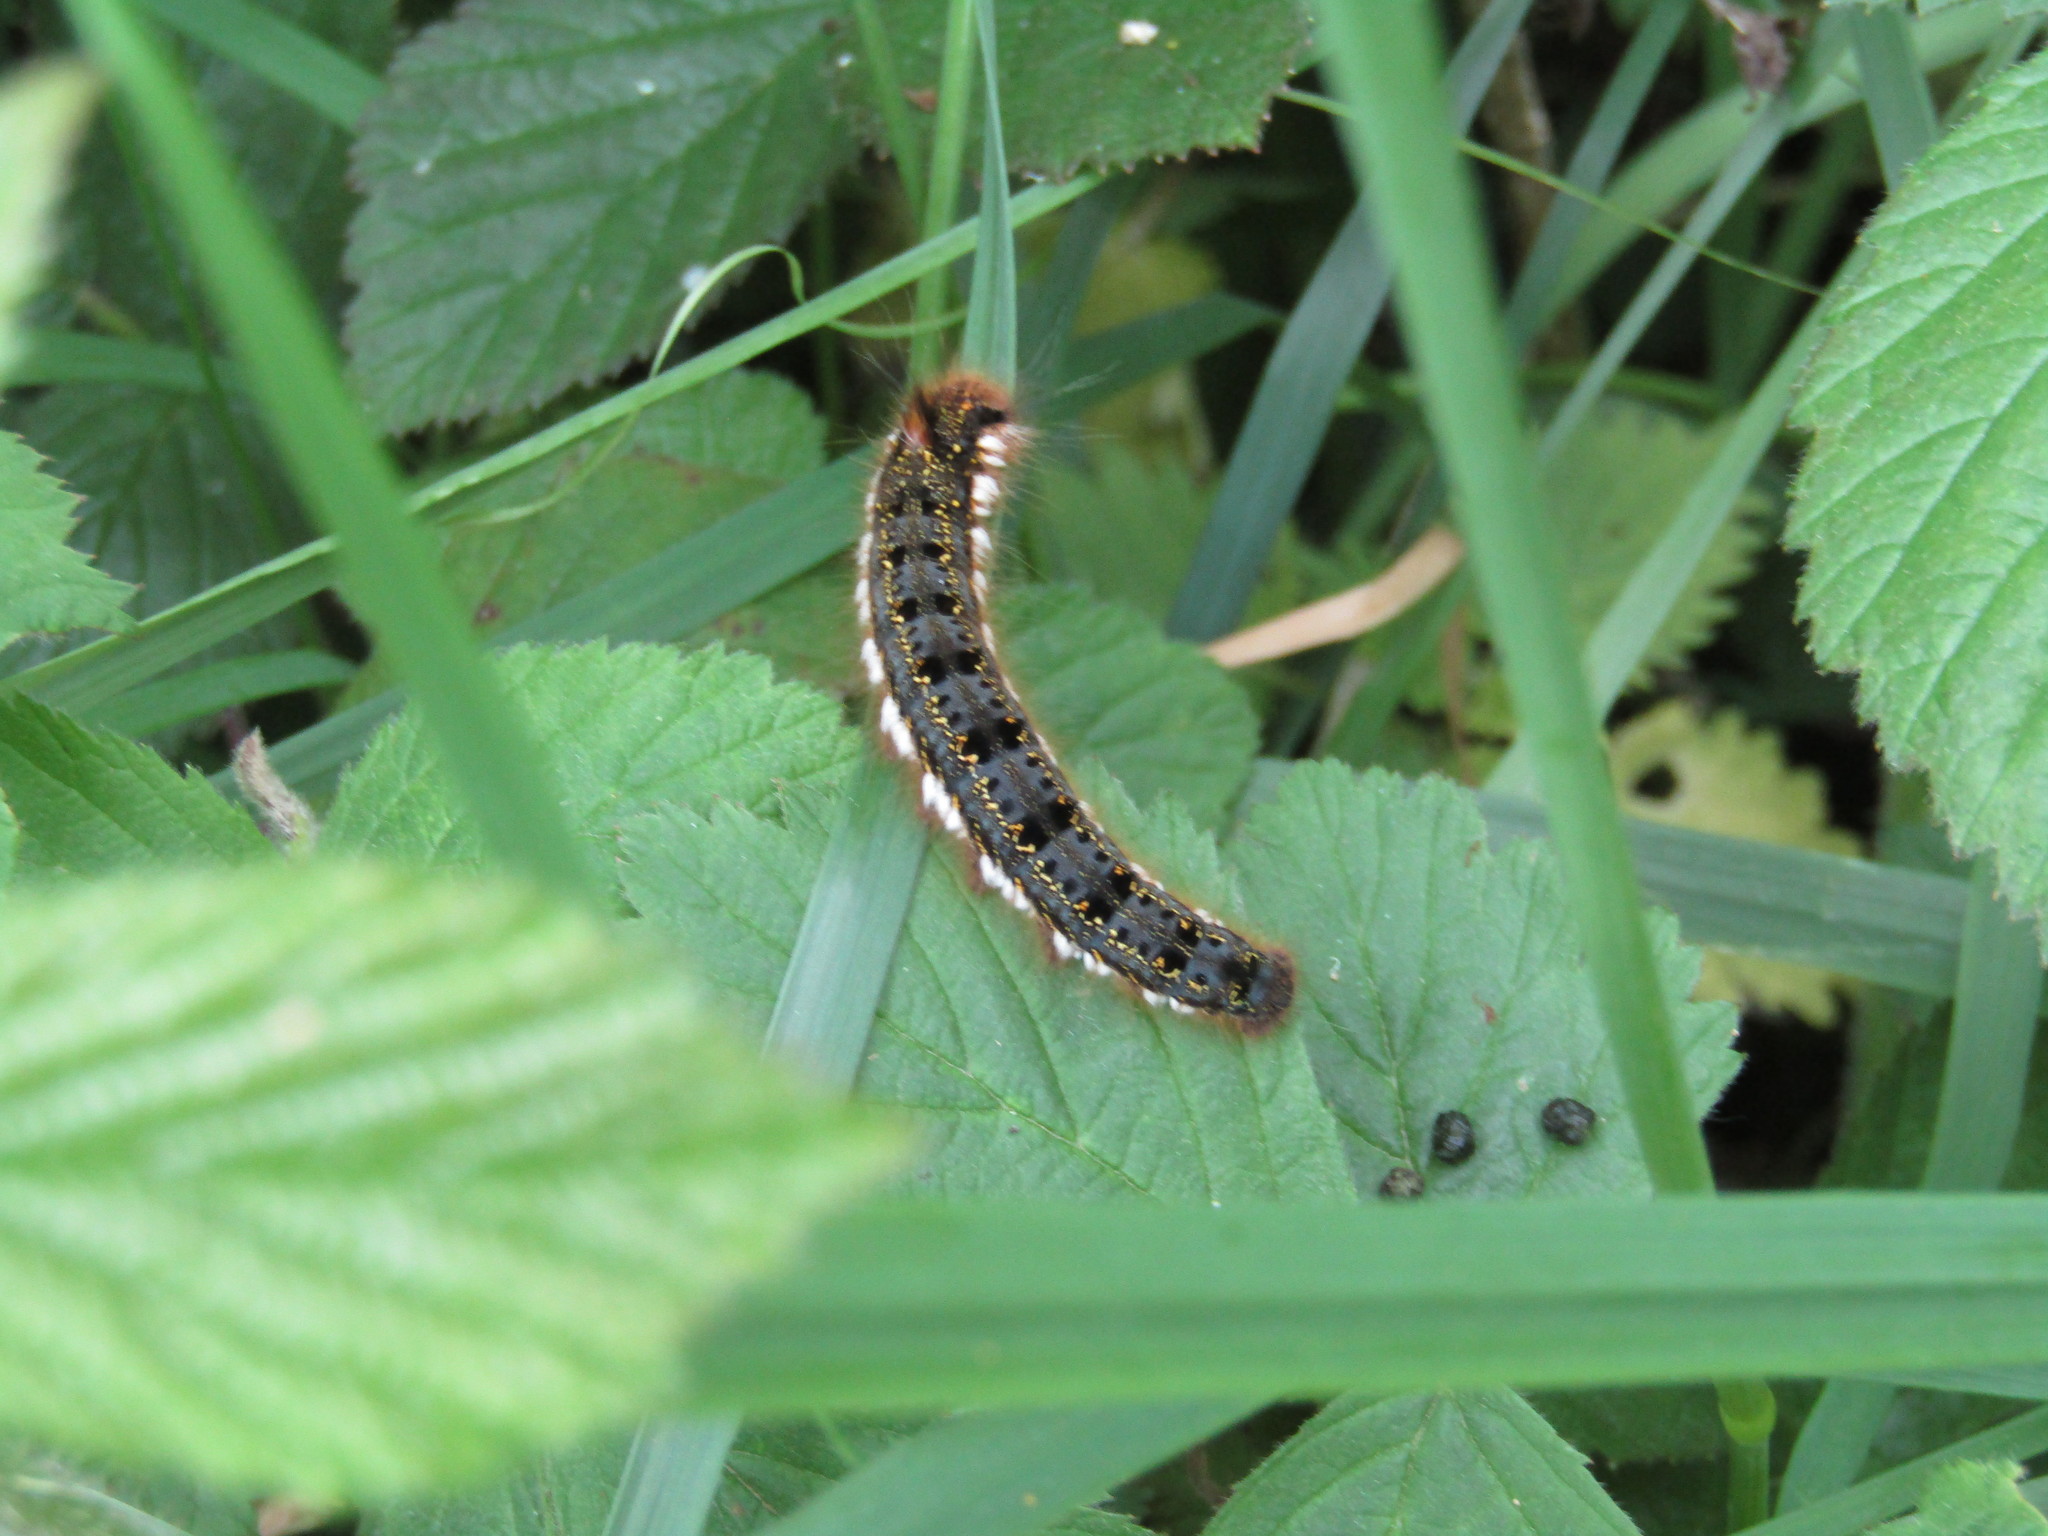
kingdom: Animalia
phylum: Arthropoda
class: Insecta
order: Lepidoptera
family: Lasiocampidae
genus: Euthrix
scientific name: Euthrix potatoria
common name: Drinker
